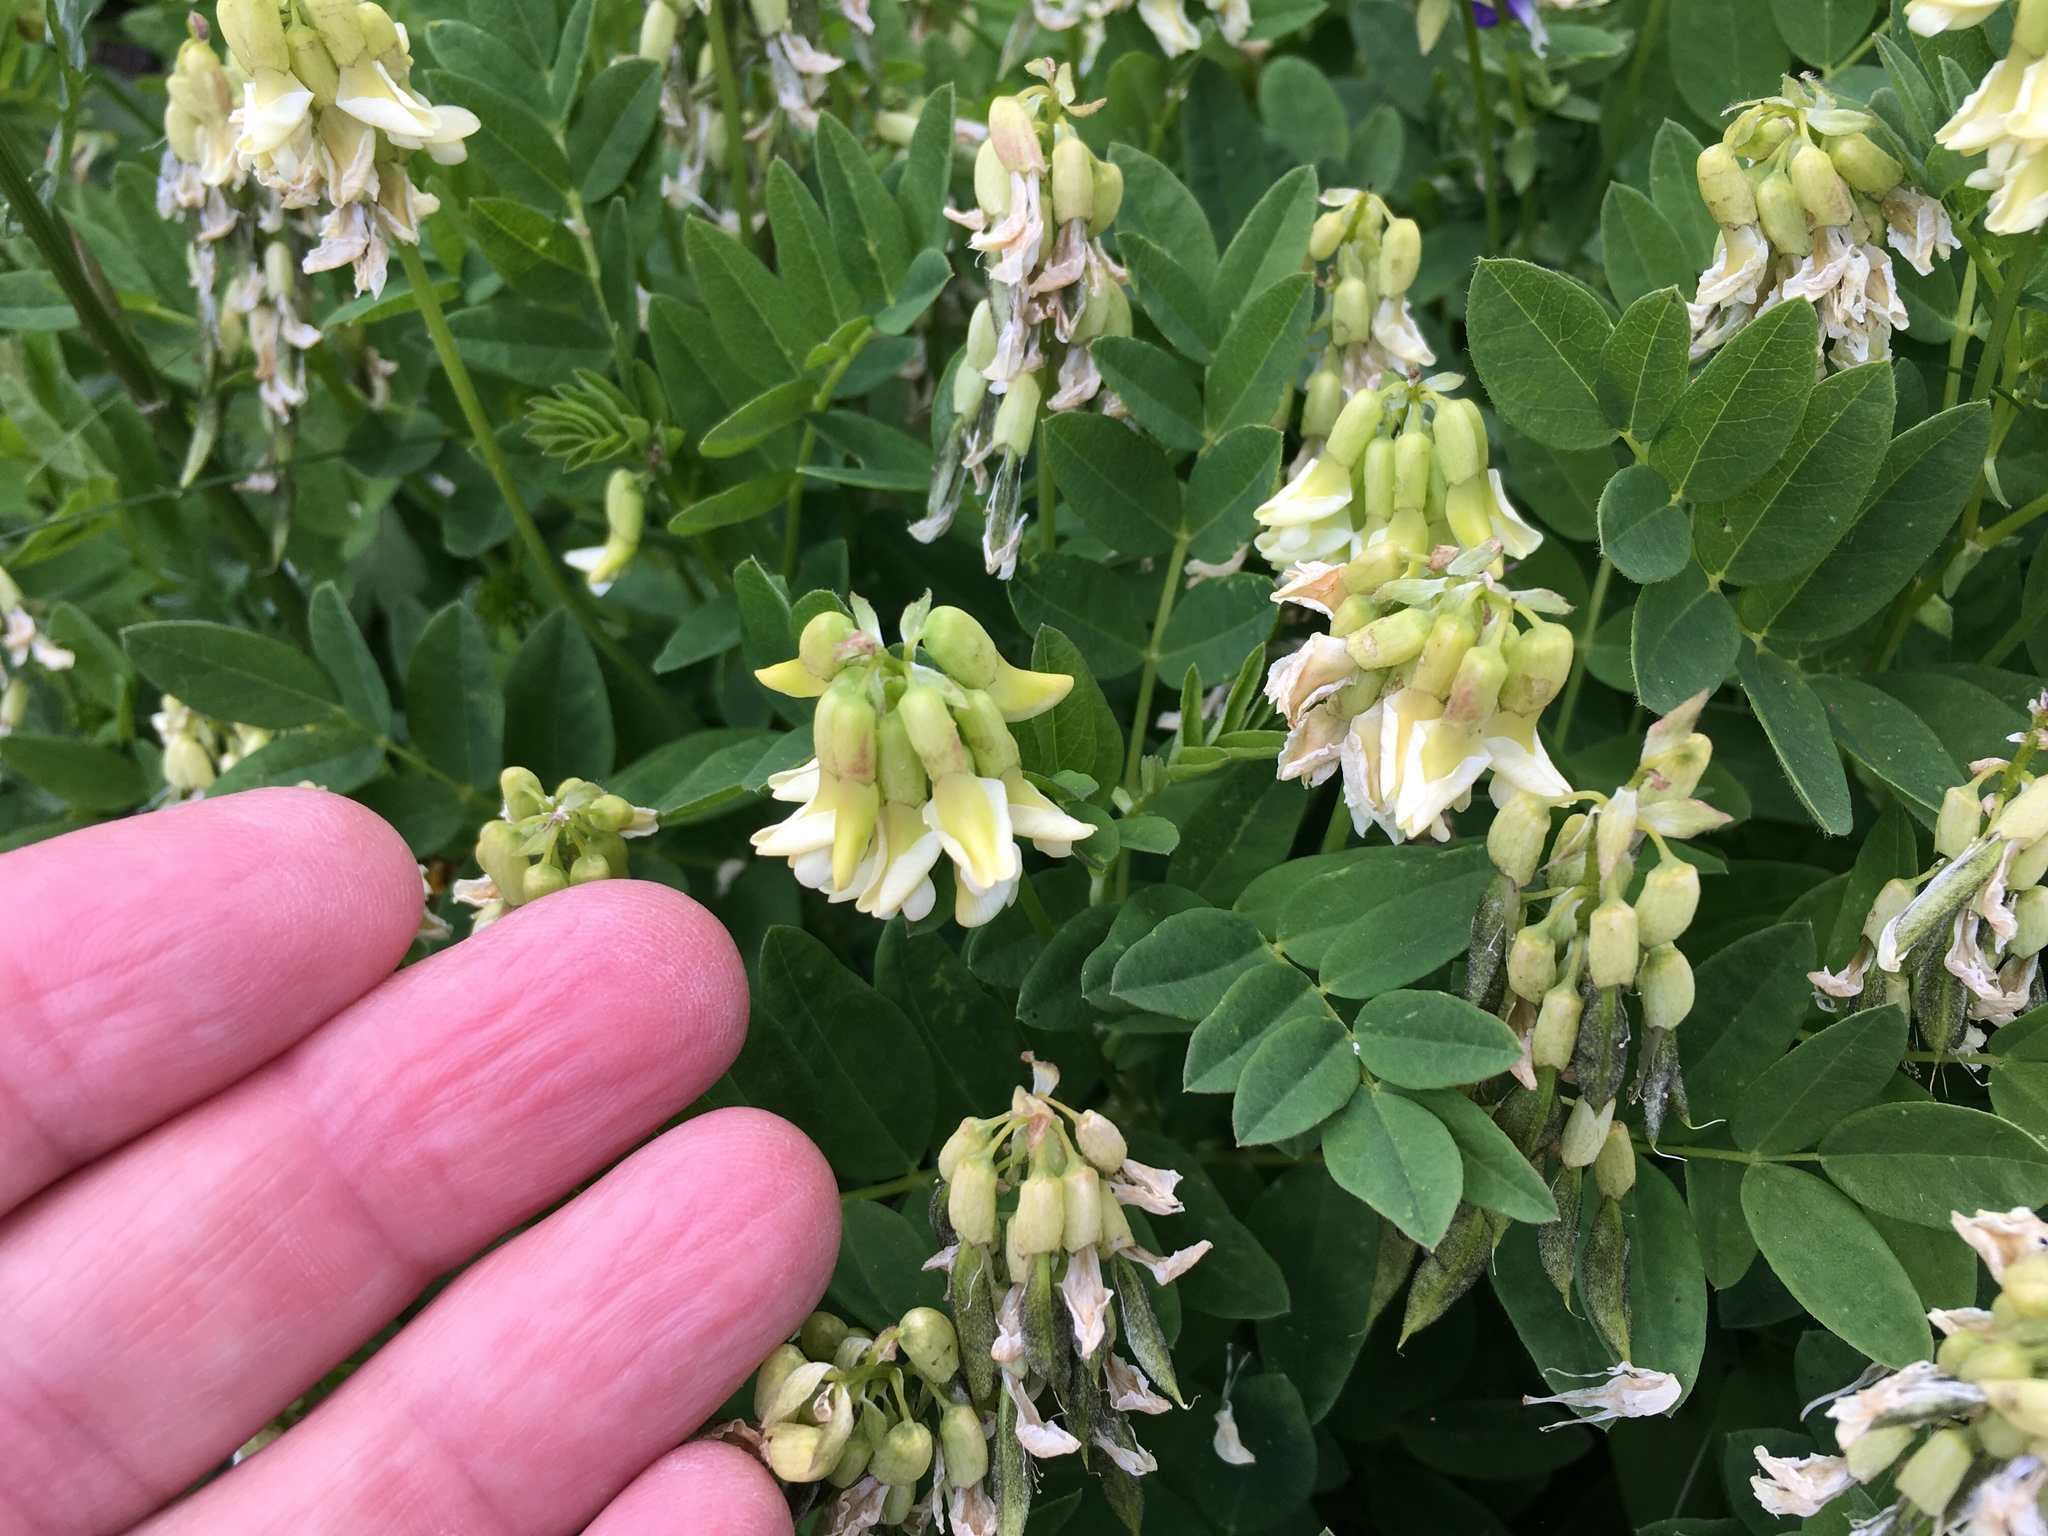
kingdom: Plantae
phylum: Tracheophyta
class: Magnoliopsida
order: Fabales
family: Fabaceae
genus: Astragalus
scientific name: Astragalus frigidus
